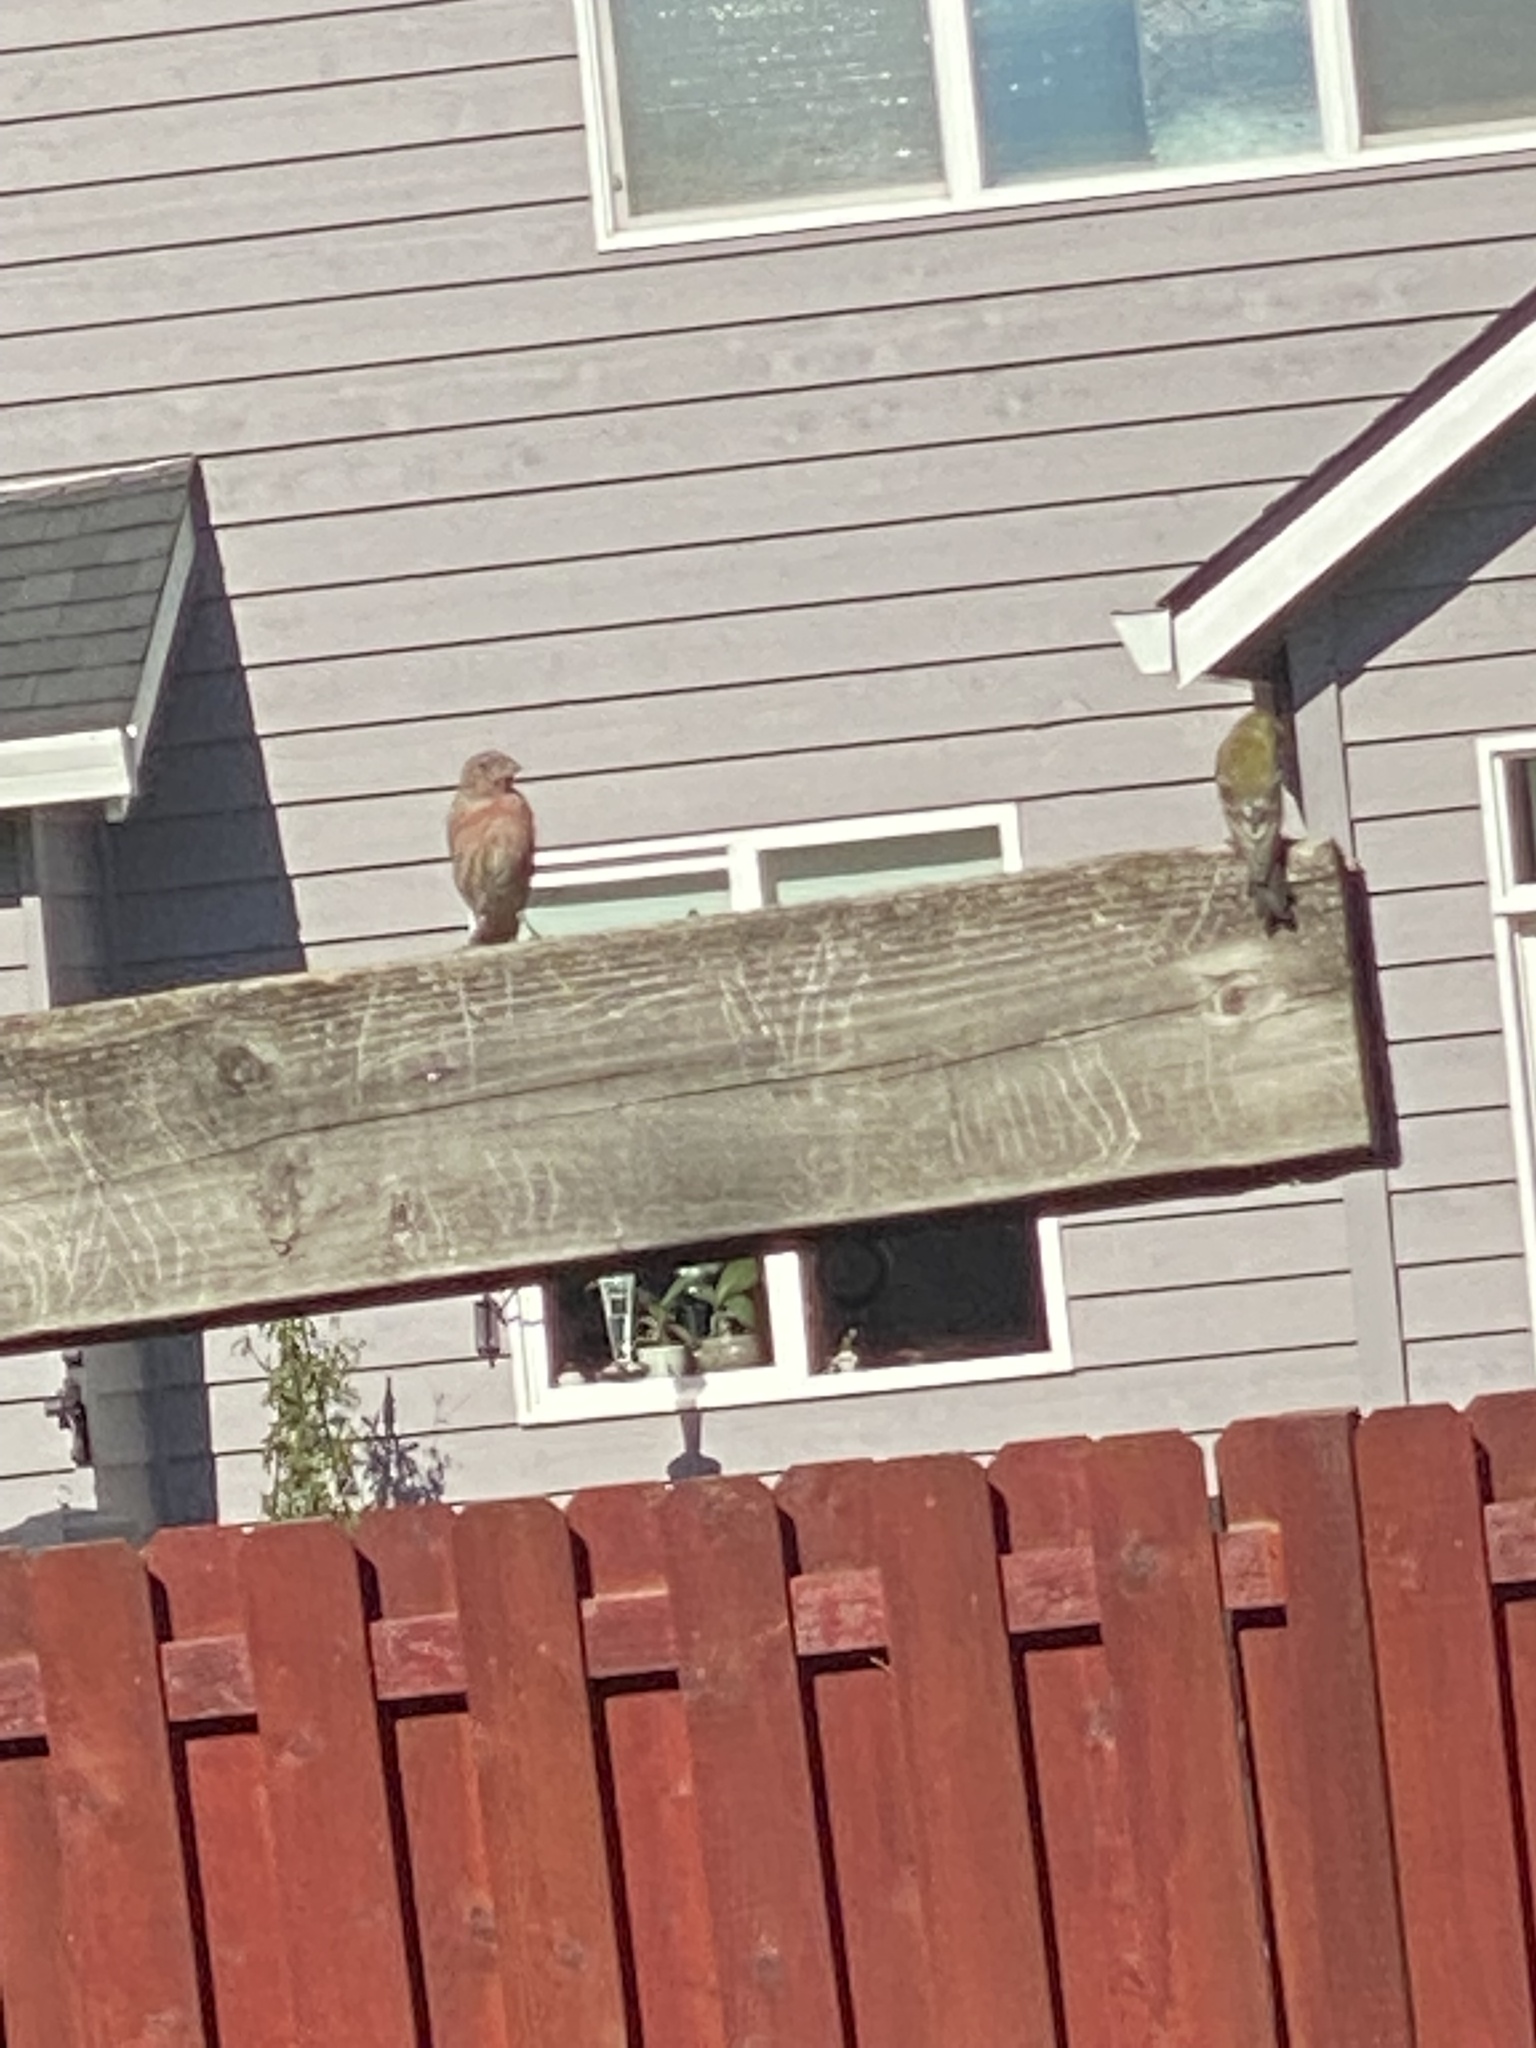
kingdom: Animalia
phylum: Chordata
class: Aves
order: Passeriformes
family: Fringillidae
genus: Spinus
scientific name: Spinus tristis
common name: American goldfinch
